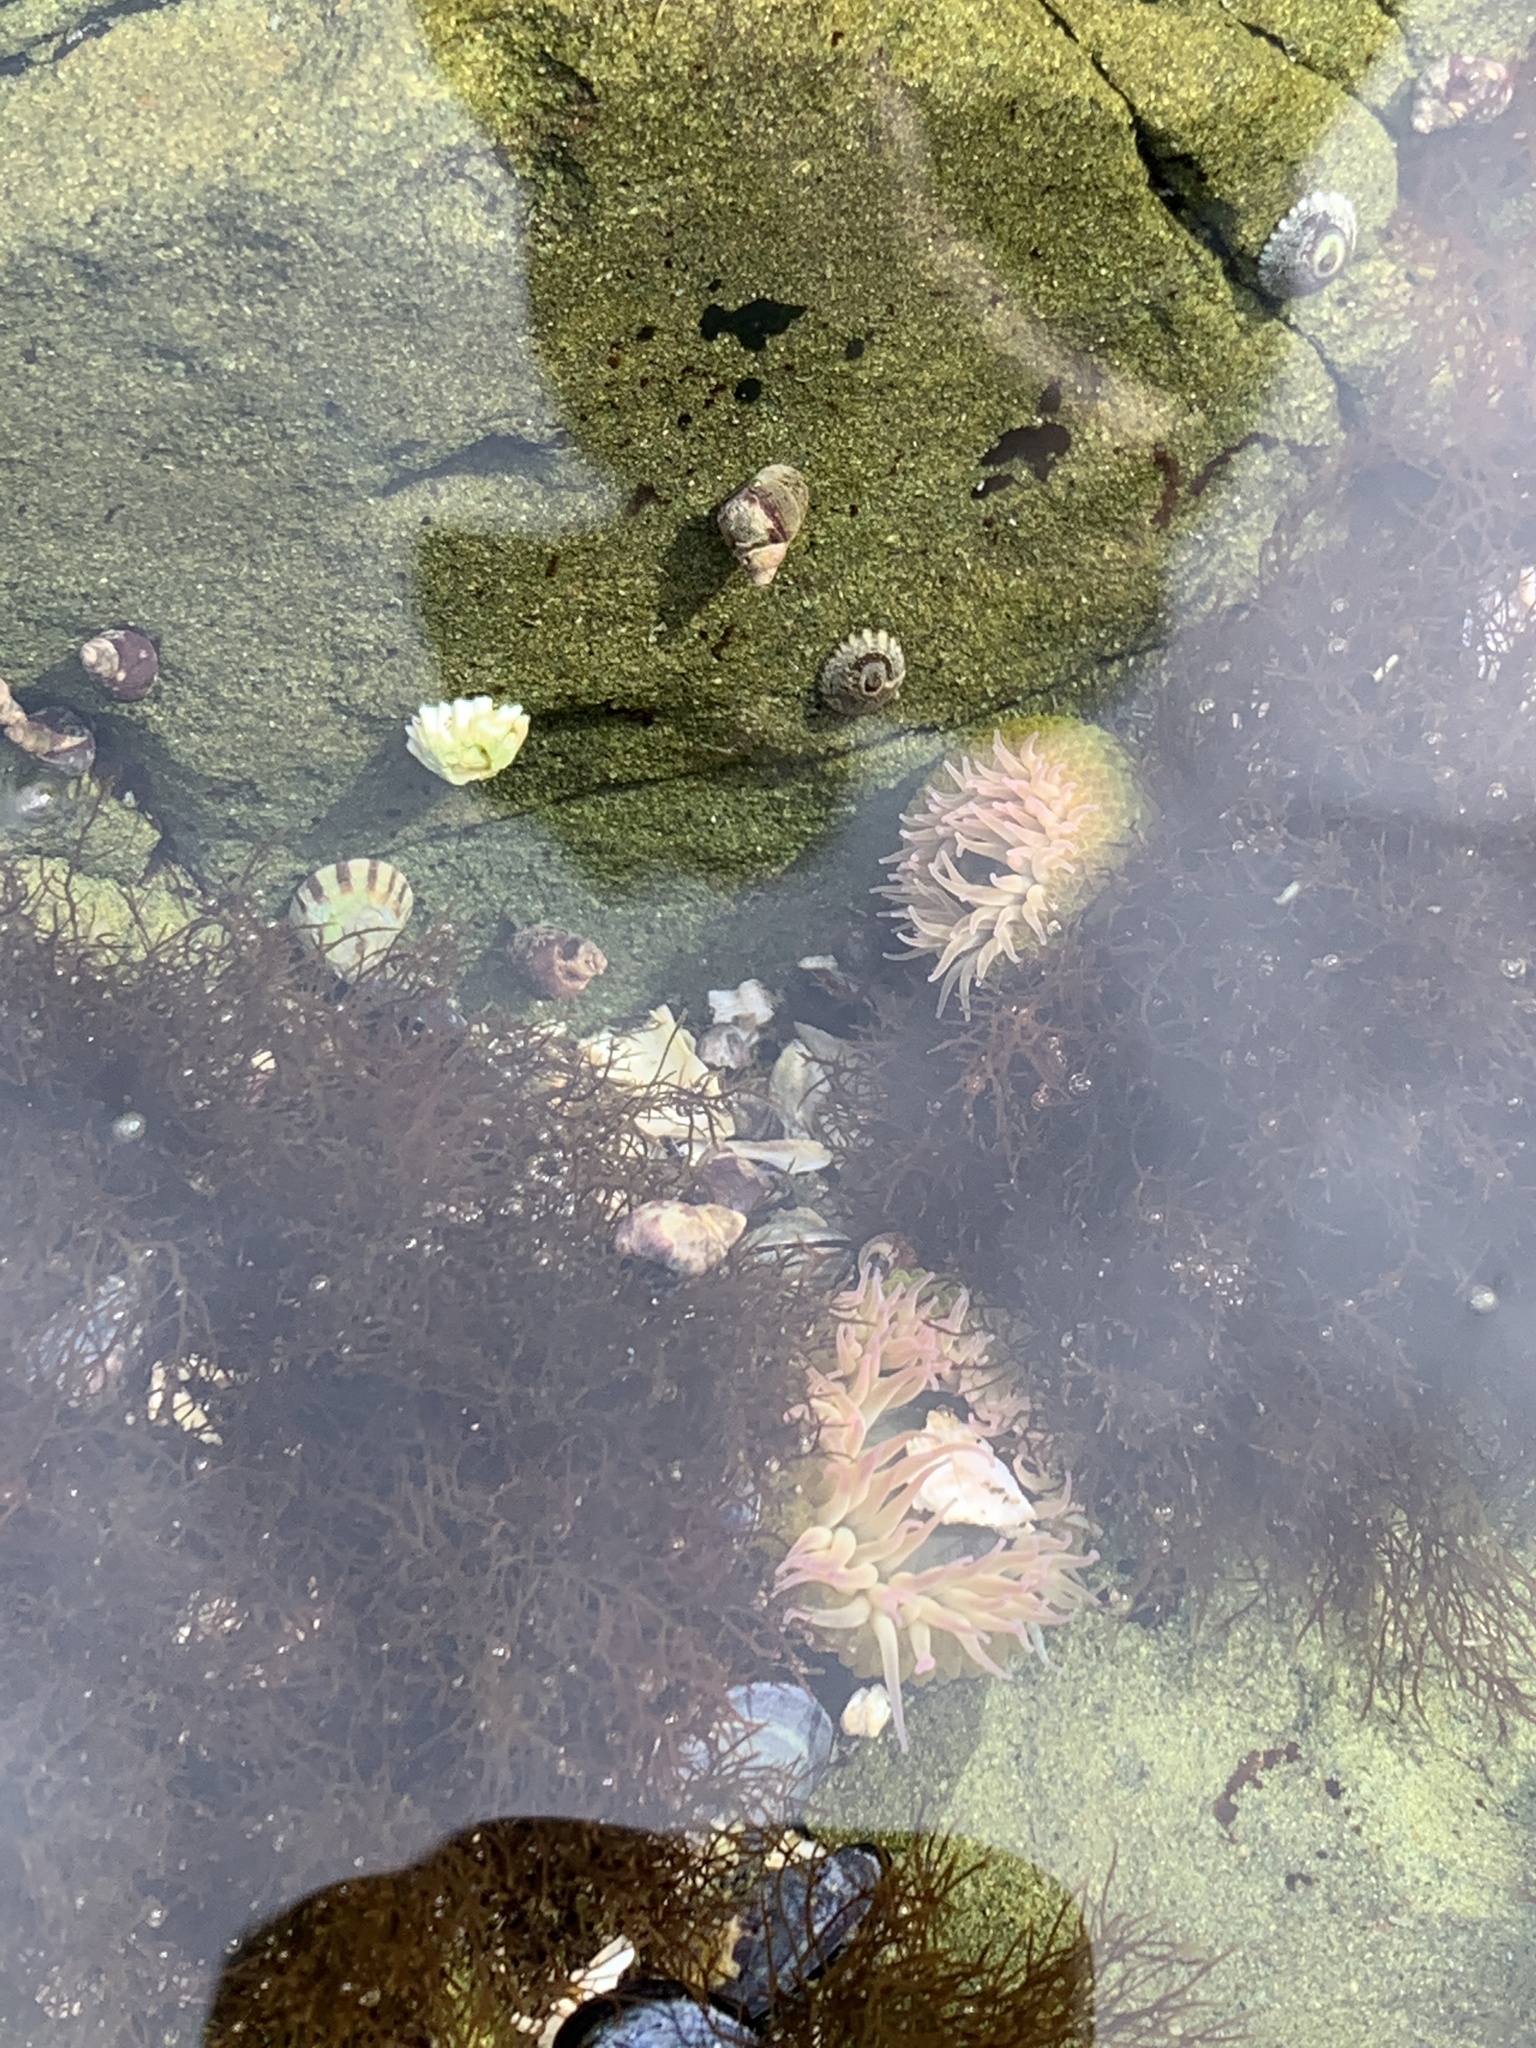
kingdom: Animalia
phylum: Cnidaria
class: Anthozoa
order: Actiniaria
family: Actiniidae
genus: Anthopleura
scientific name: Anthopleura elegantissima
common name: Clonal anemone
